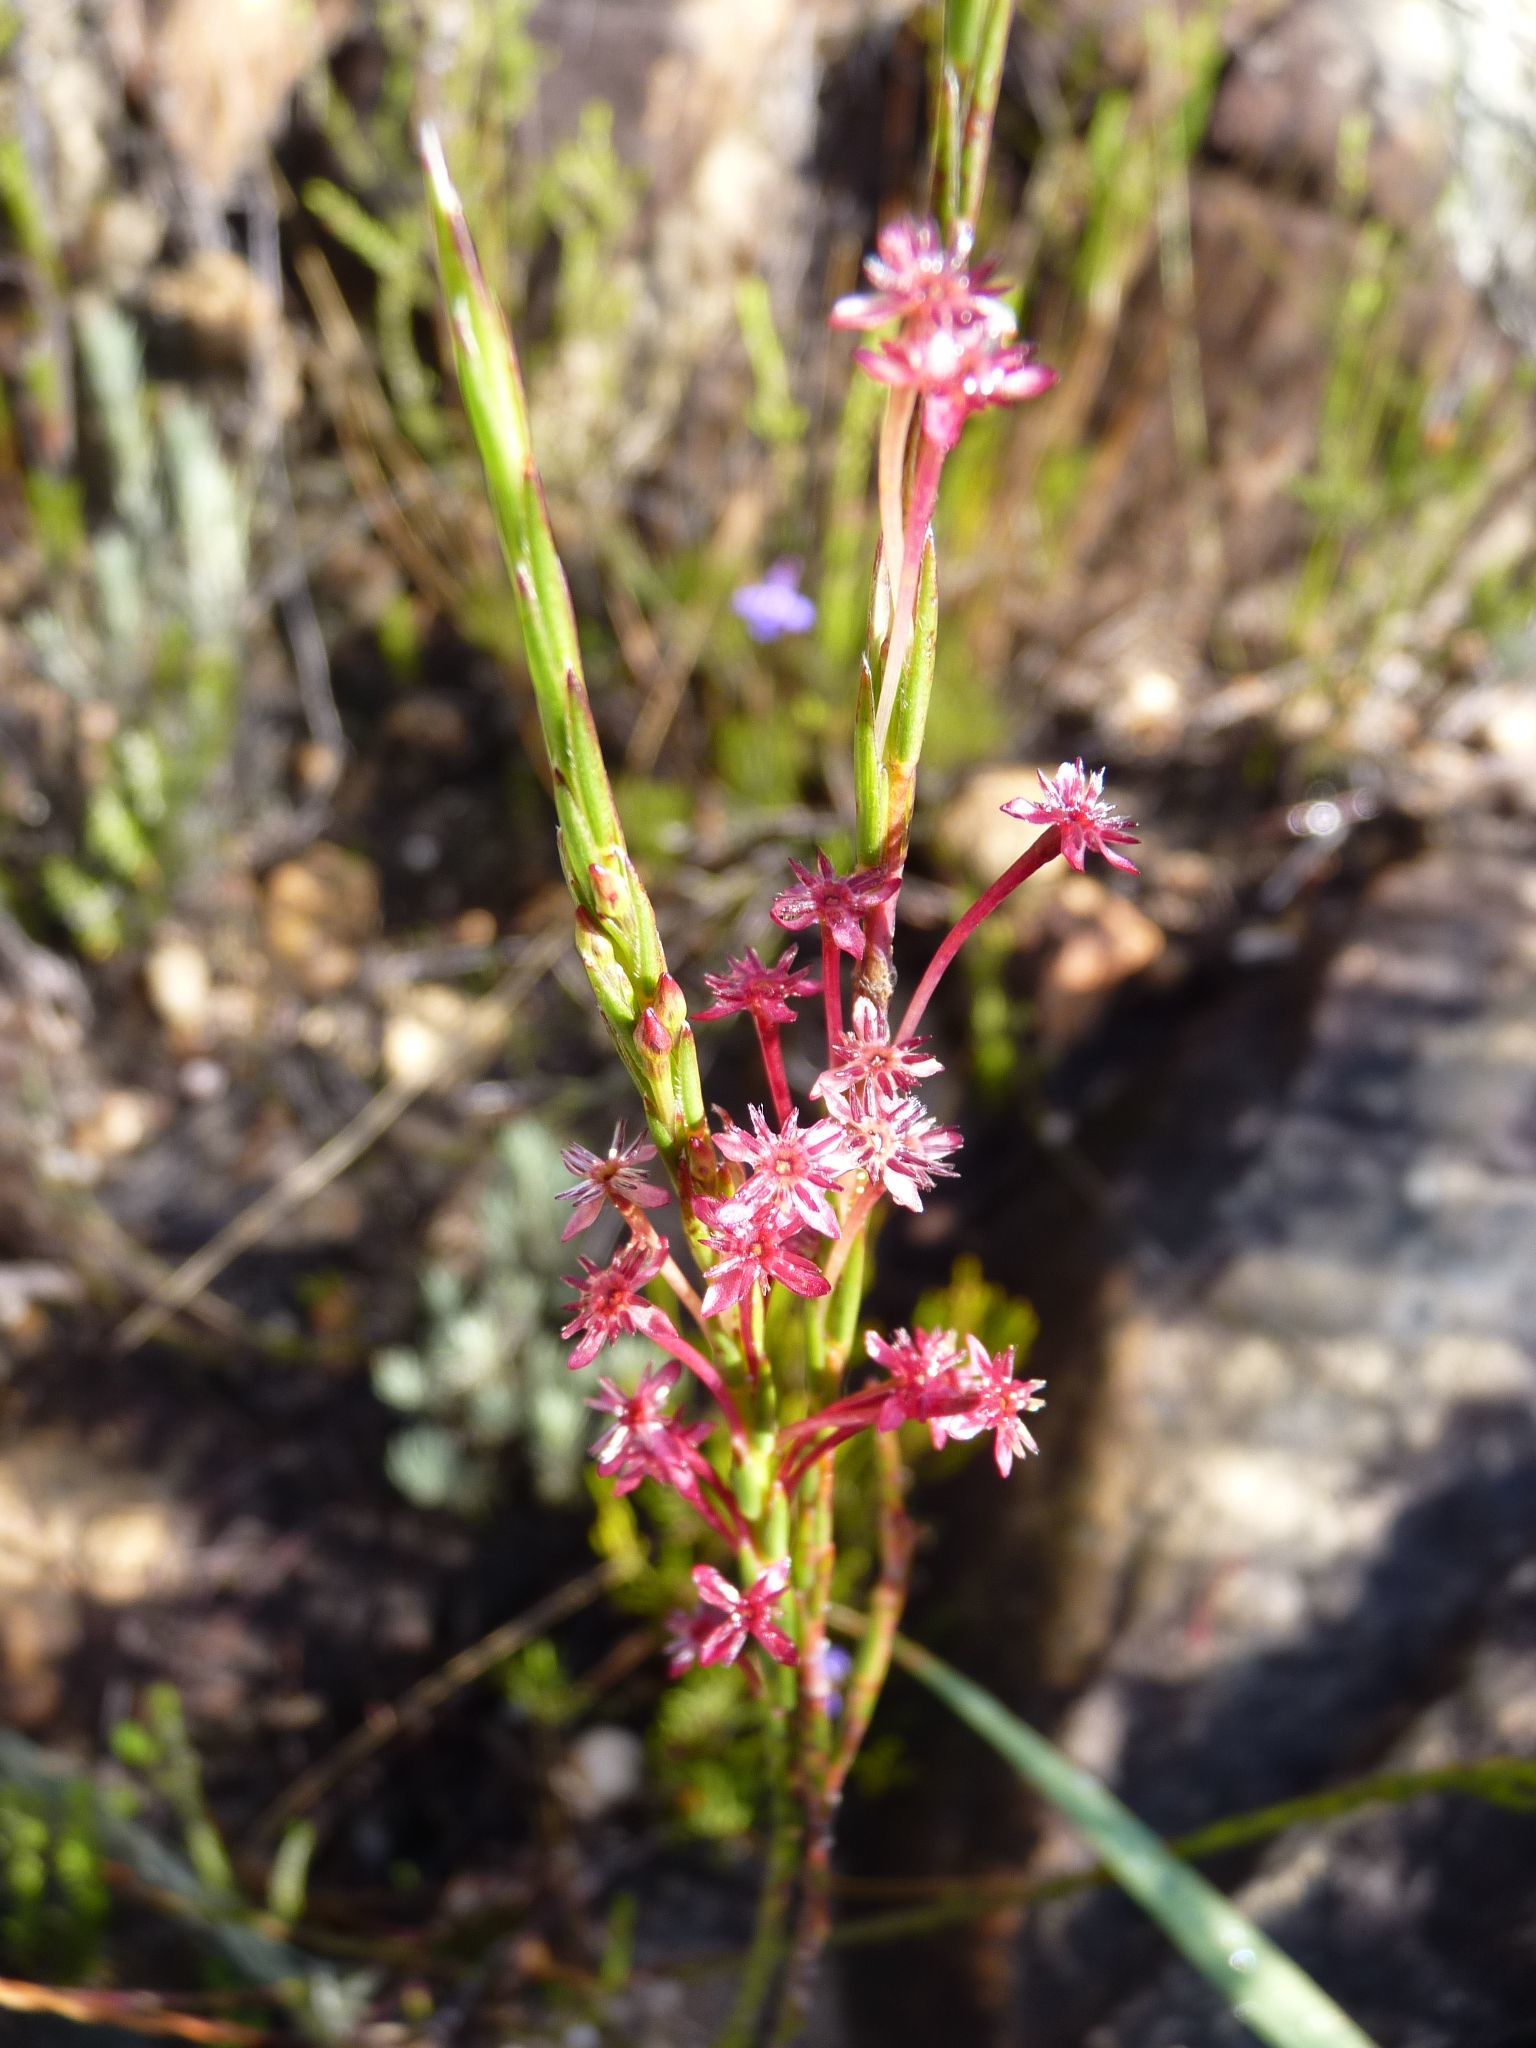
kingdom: Plantae
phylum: Tracheophyta
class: Magnoliopsida
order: Malvales
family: Thymelaeaceae
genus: Struthiola
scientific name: Struthiola macowanii
